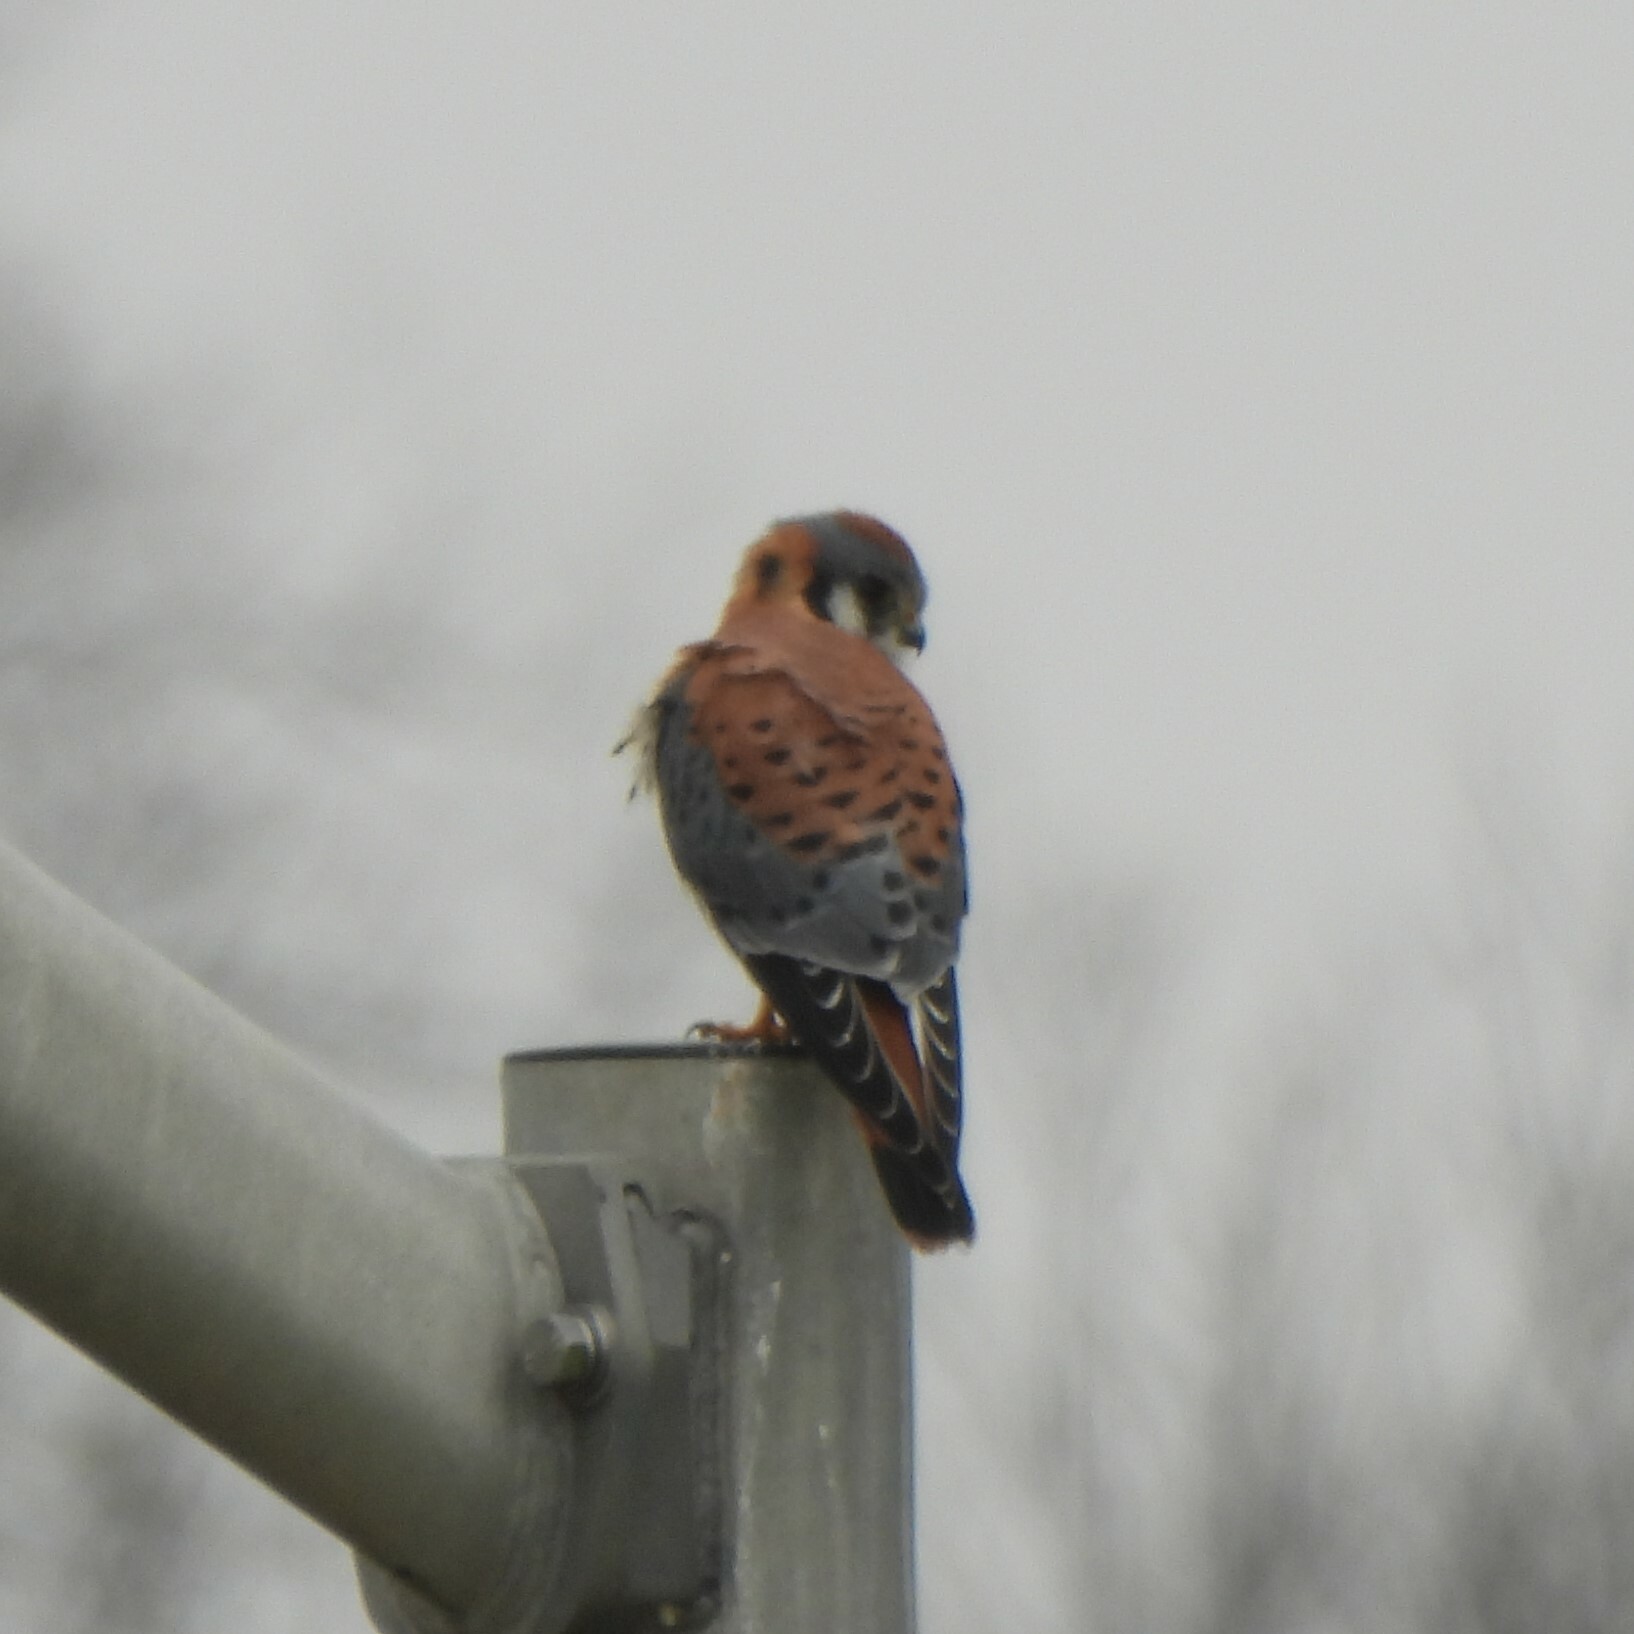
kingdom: Animalia
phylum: Chordata
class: Aves
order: Falconiformes
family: Falconidae
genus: Falco
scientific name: Falco sparverius
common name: American kestrel
